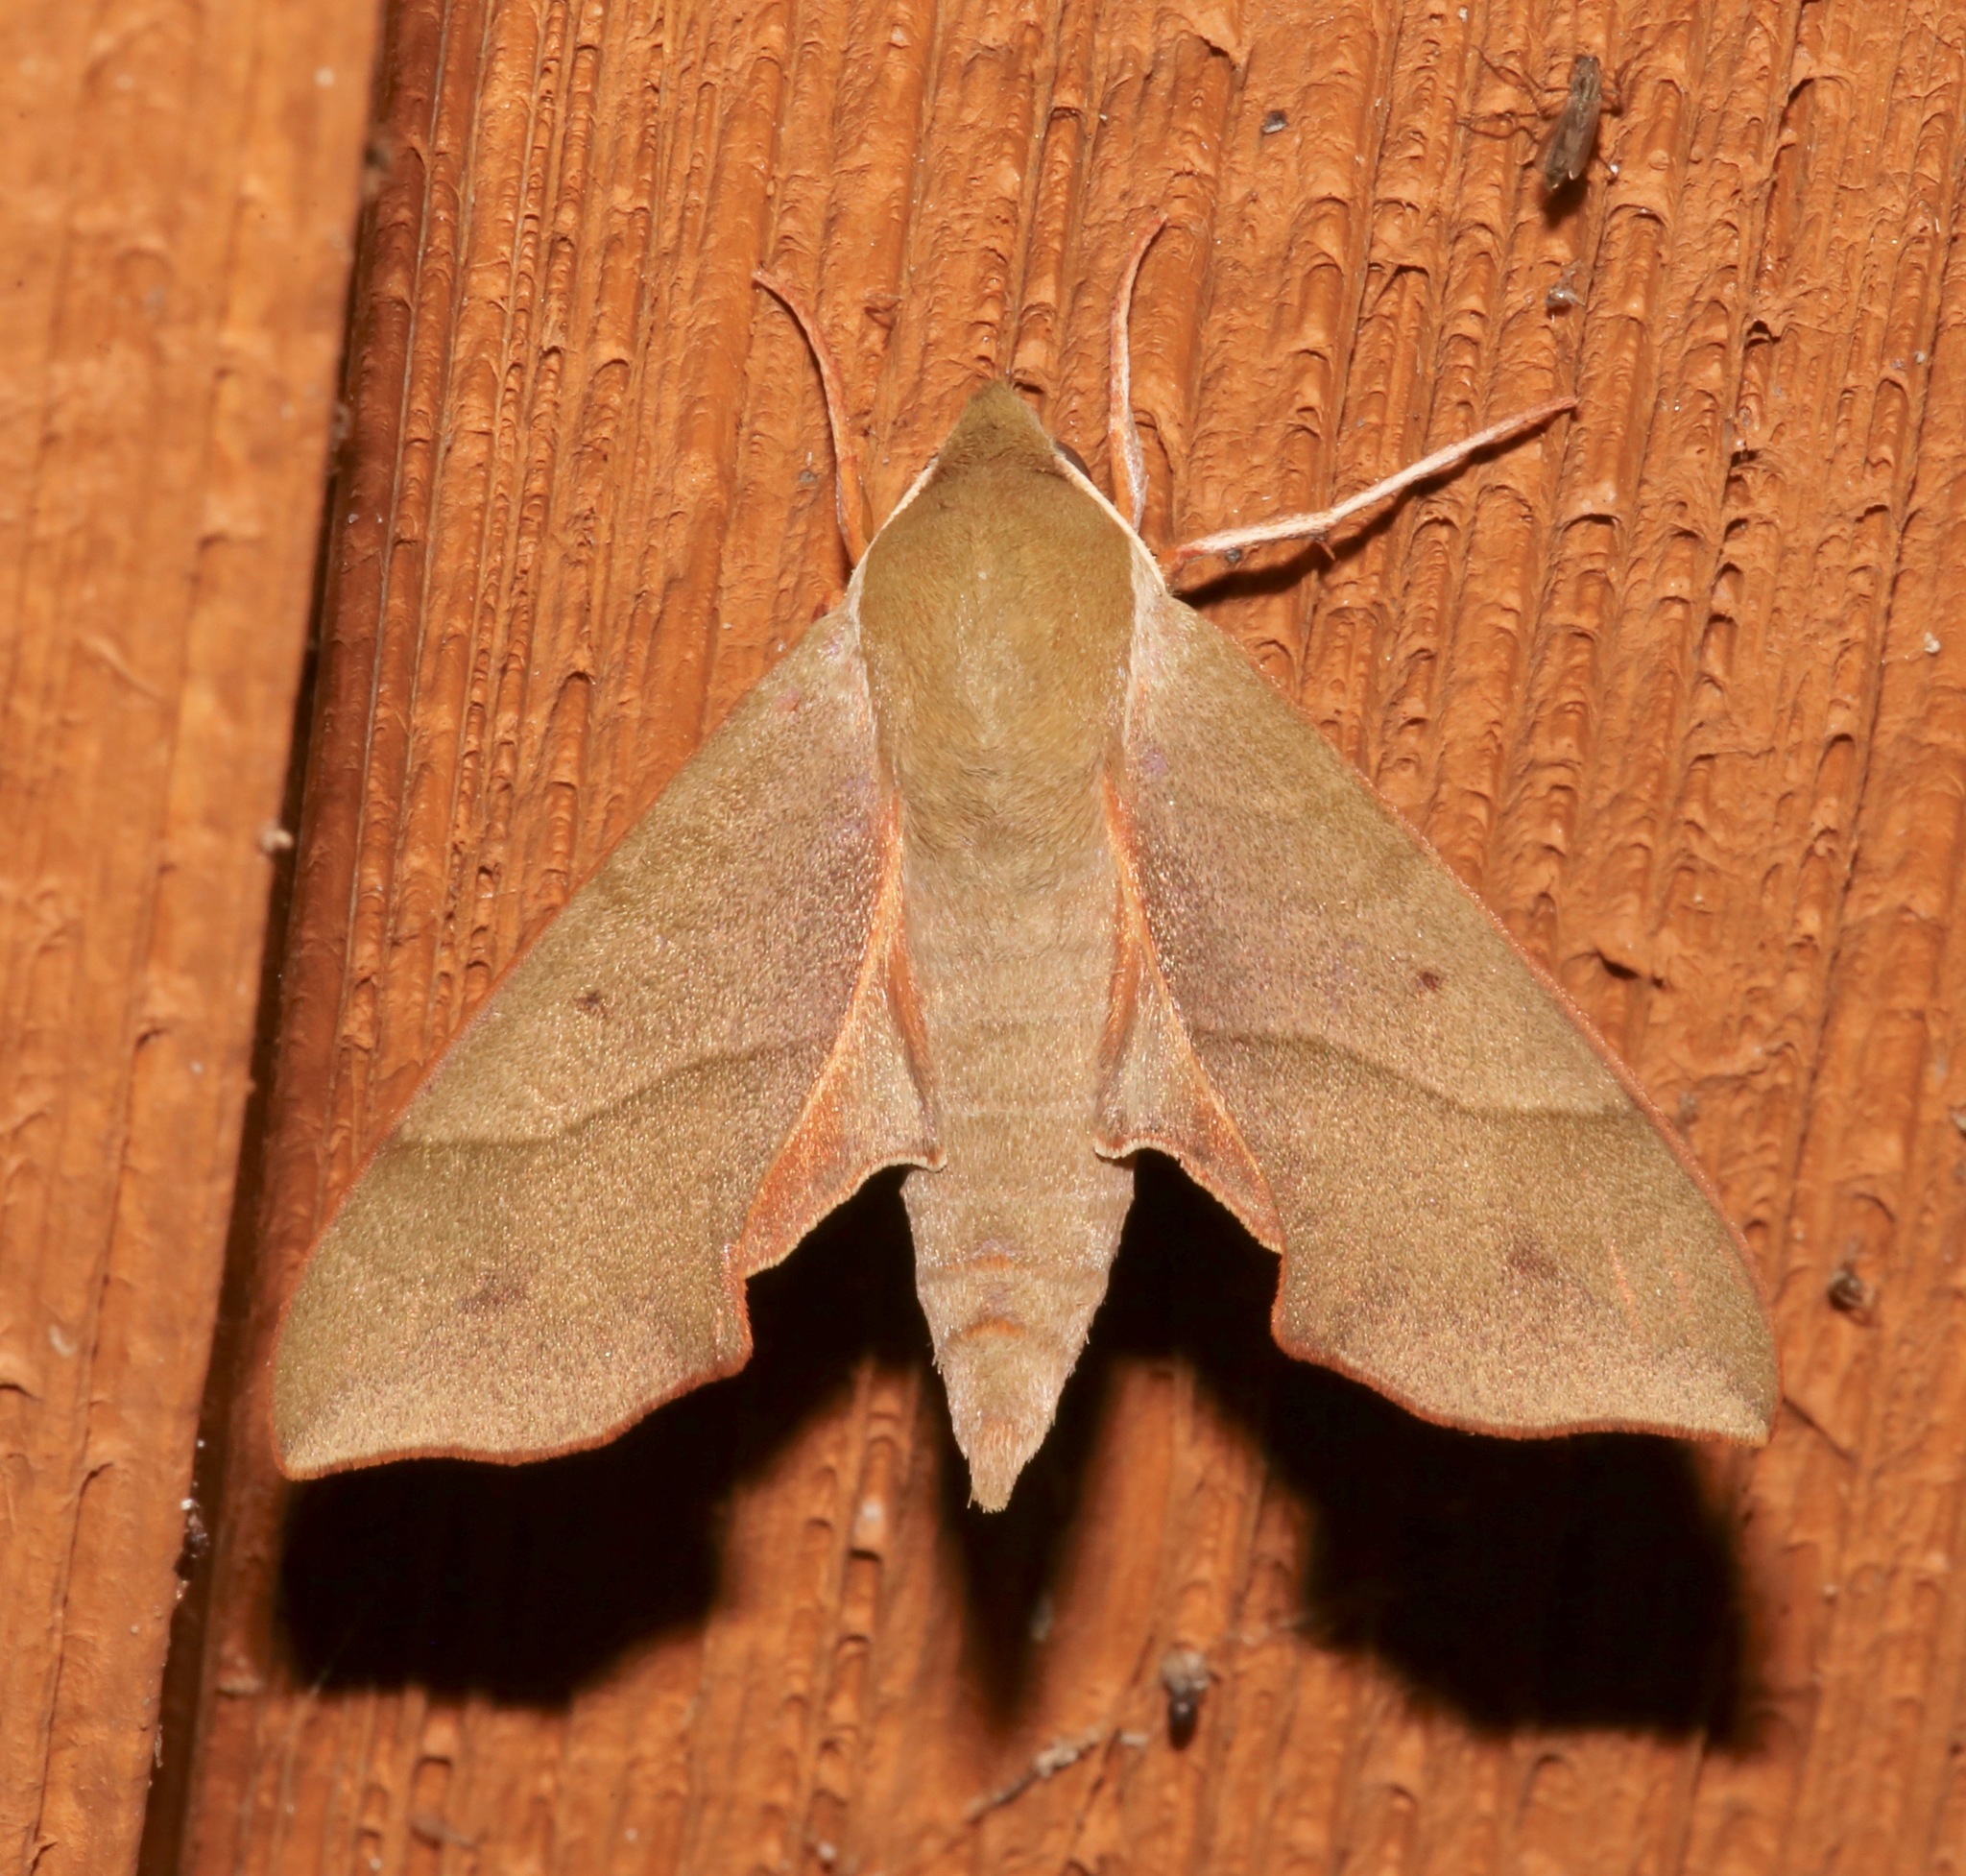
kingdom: Animalia
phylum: Arthropoda
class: Insecta
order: Lepidoptera
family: Sphingidae
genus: Darapsa
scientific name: Darapsa myron
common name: Hog sphinx
